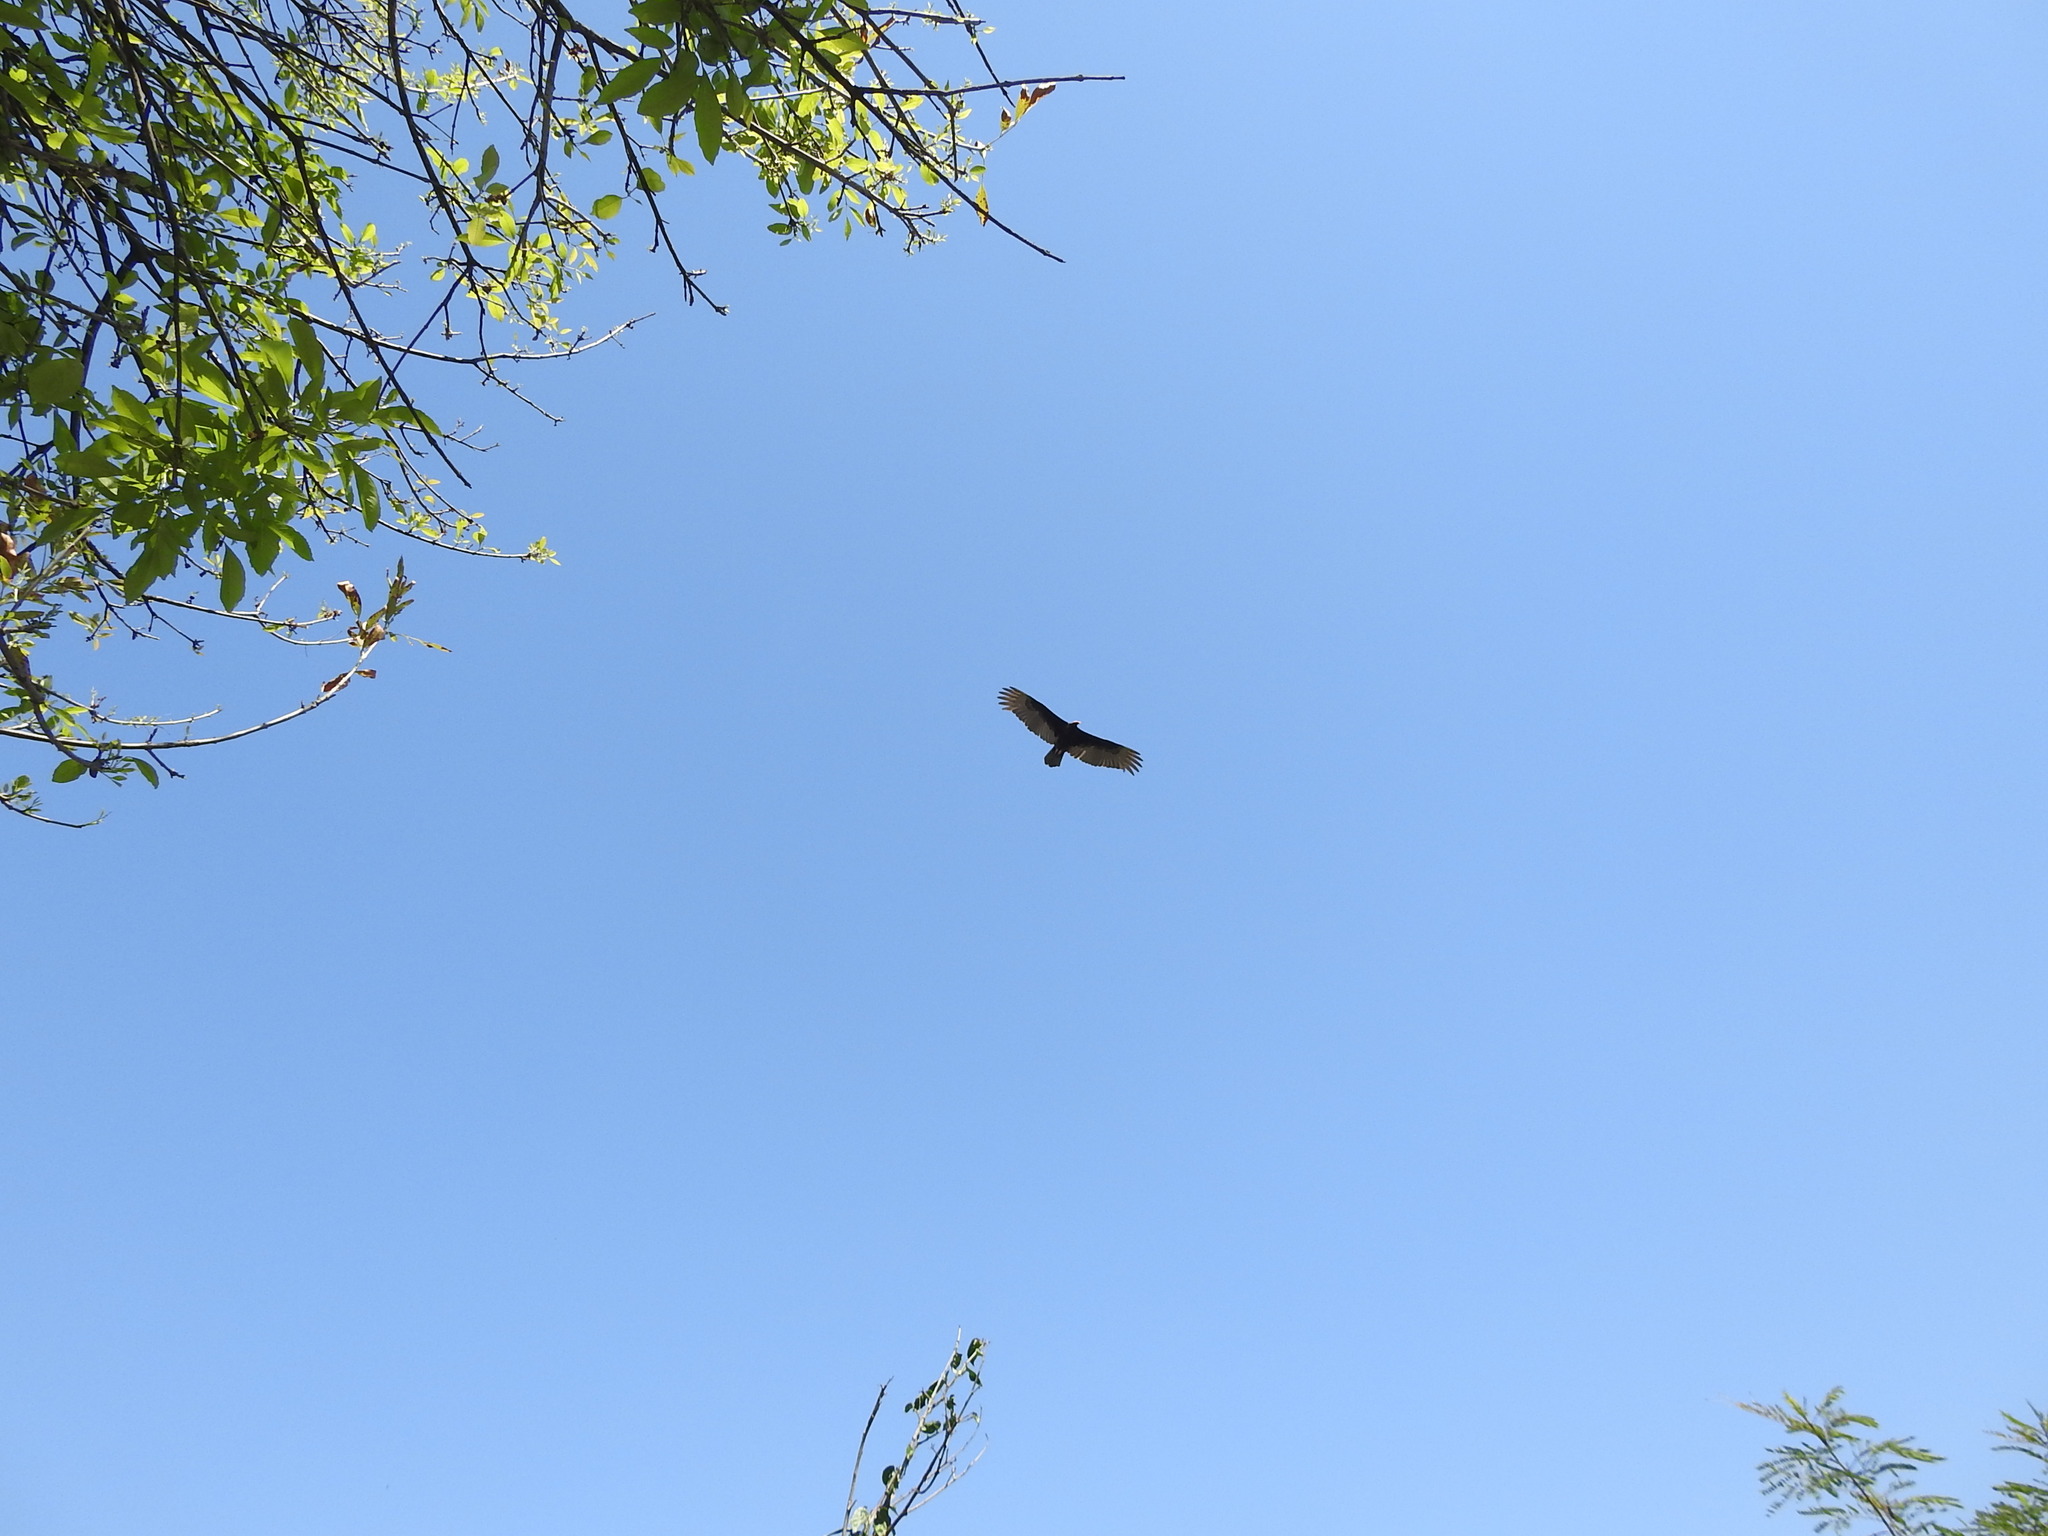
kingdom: Animalia
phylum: Chordata
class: Aves
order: Accipitriformes
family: Cathartidae
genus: Cathartes
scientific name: Cathartes aura
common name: Turkey vulture
